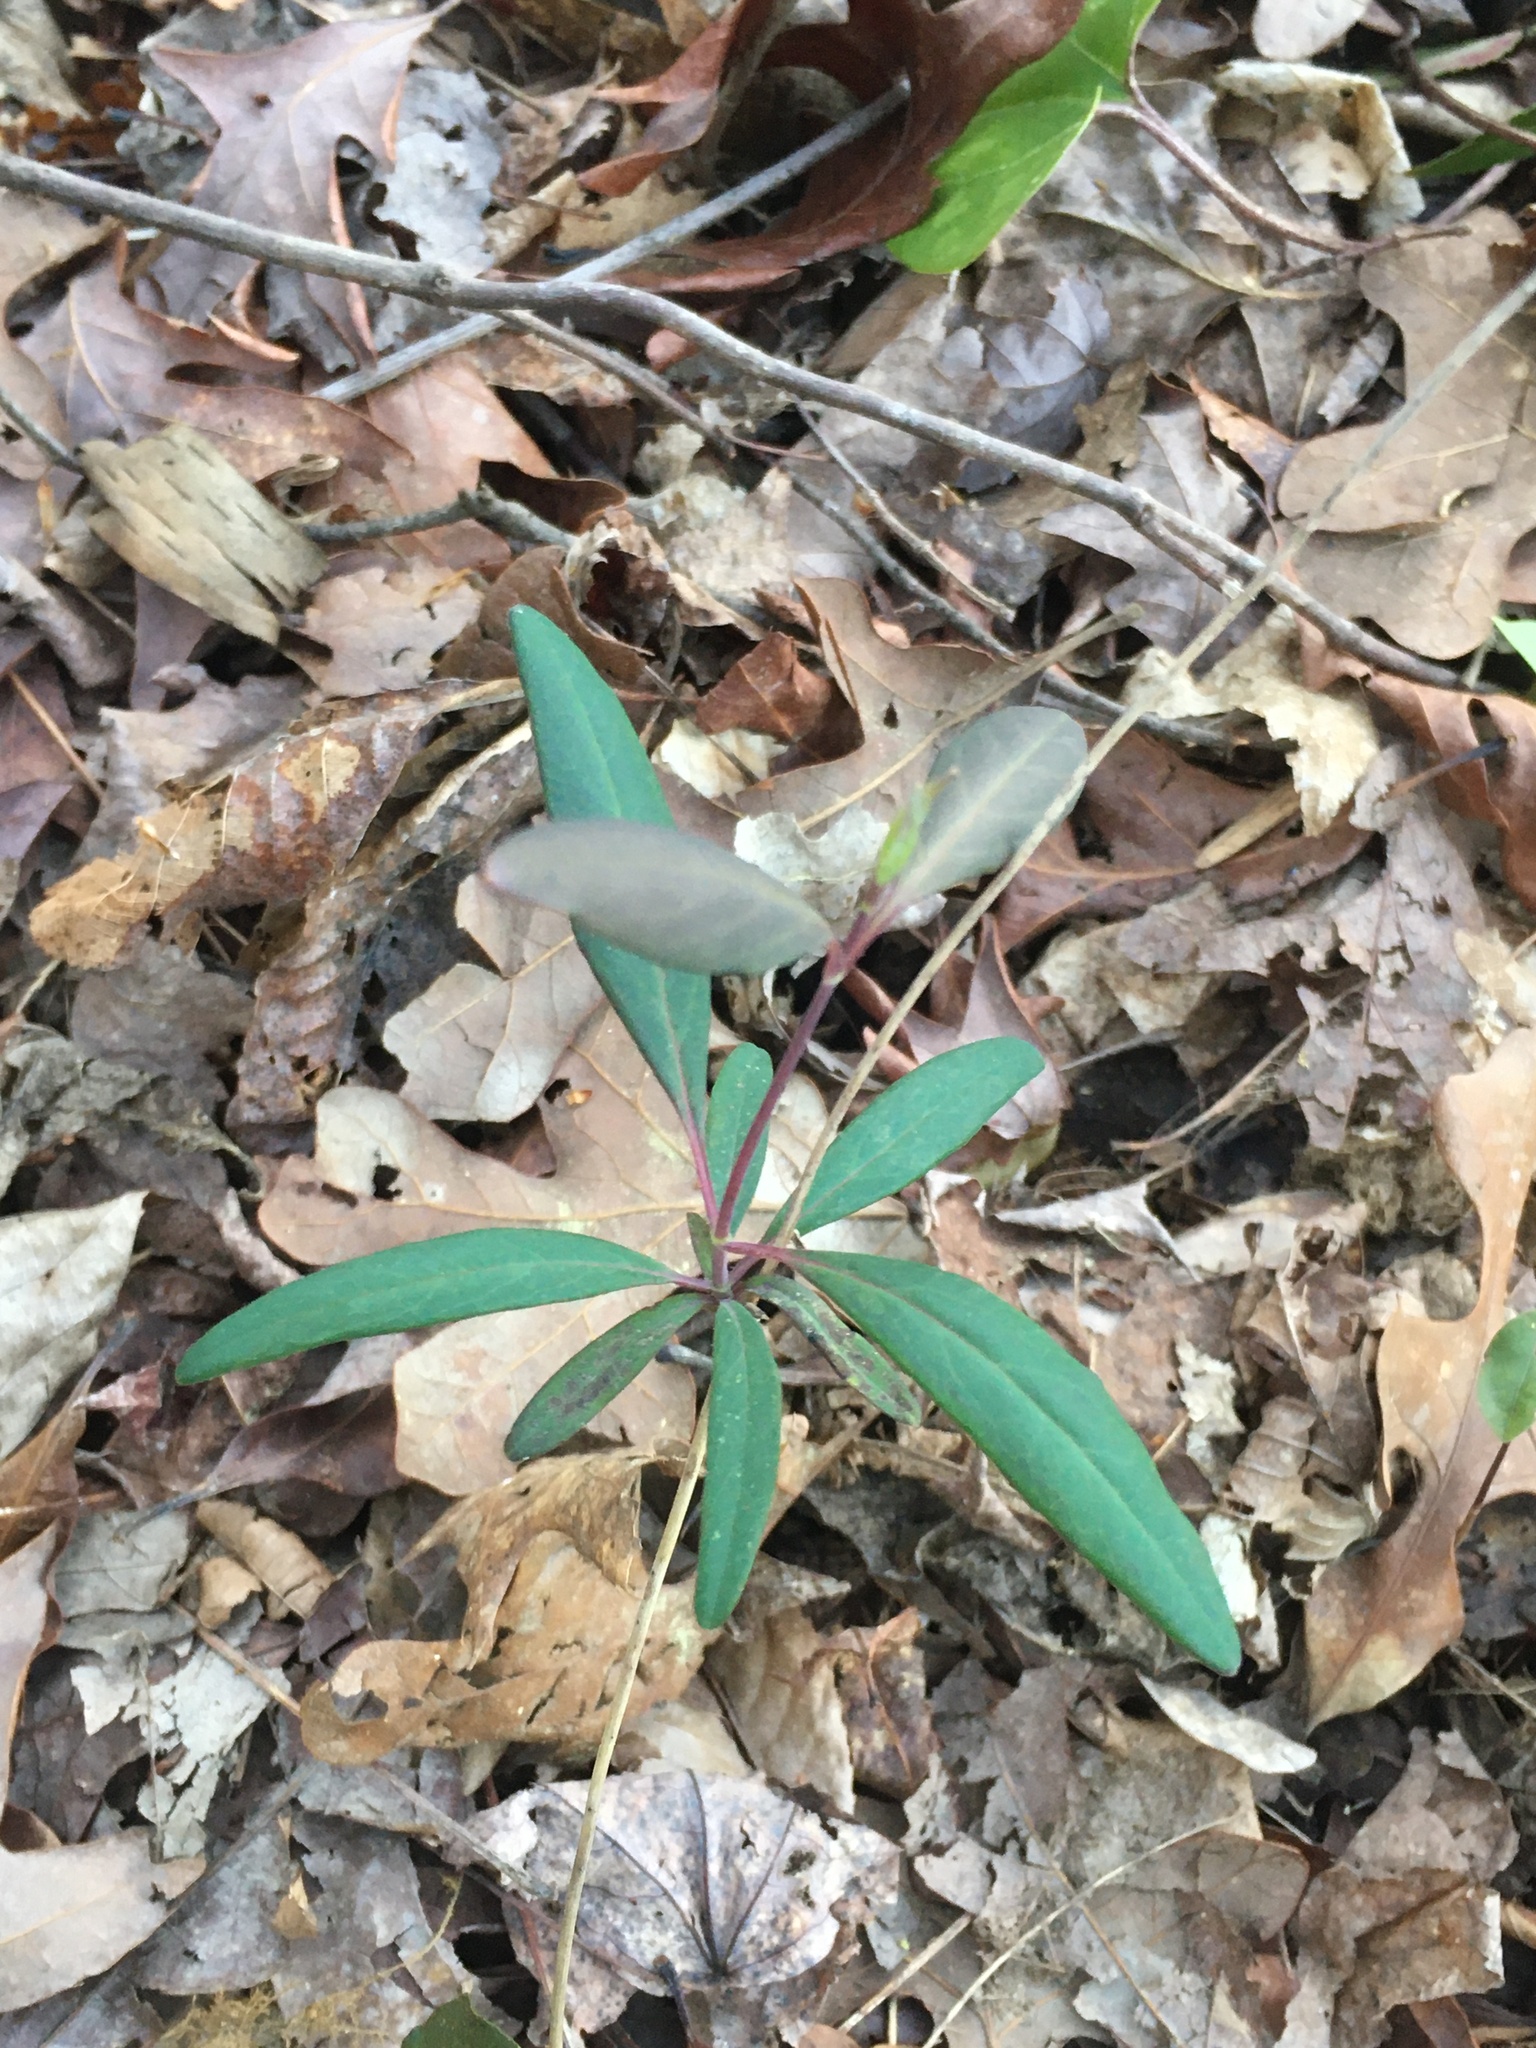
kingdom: Plantae
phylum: Tracheophyta
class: Magnoliopsida
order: Dipsacales
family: Caprifoliaceae
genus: Lonicera
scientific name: Lonicera sempervirens
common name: Coral honeysuckle
